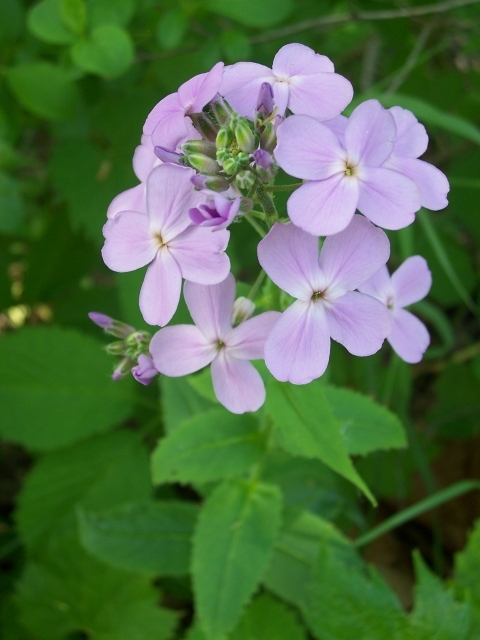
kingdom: Plantae
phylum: Tracheophyta
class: Magnoliopsida
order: Brassicales
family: Brassicaceae
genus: Hesperis
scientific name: Hesperis matronalis
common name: Dame's-violet
